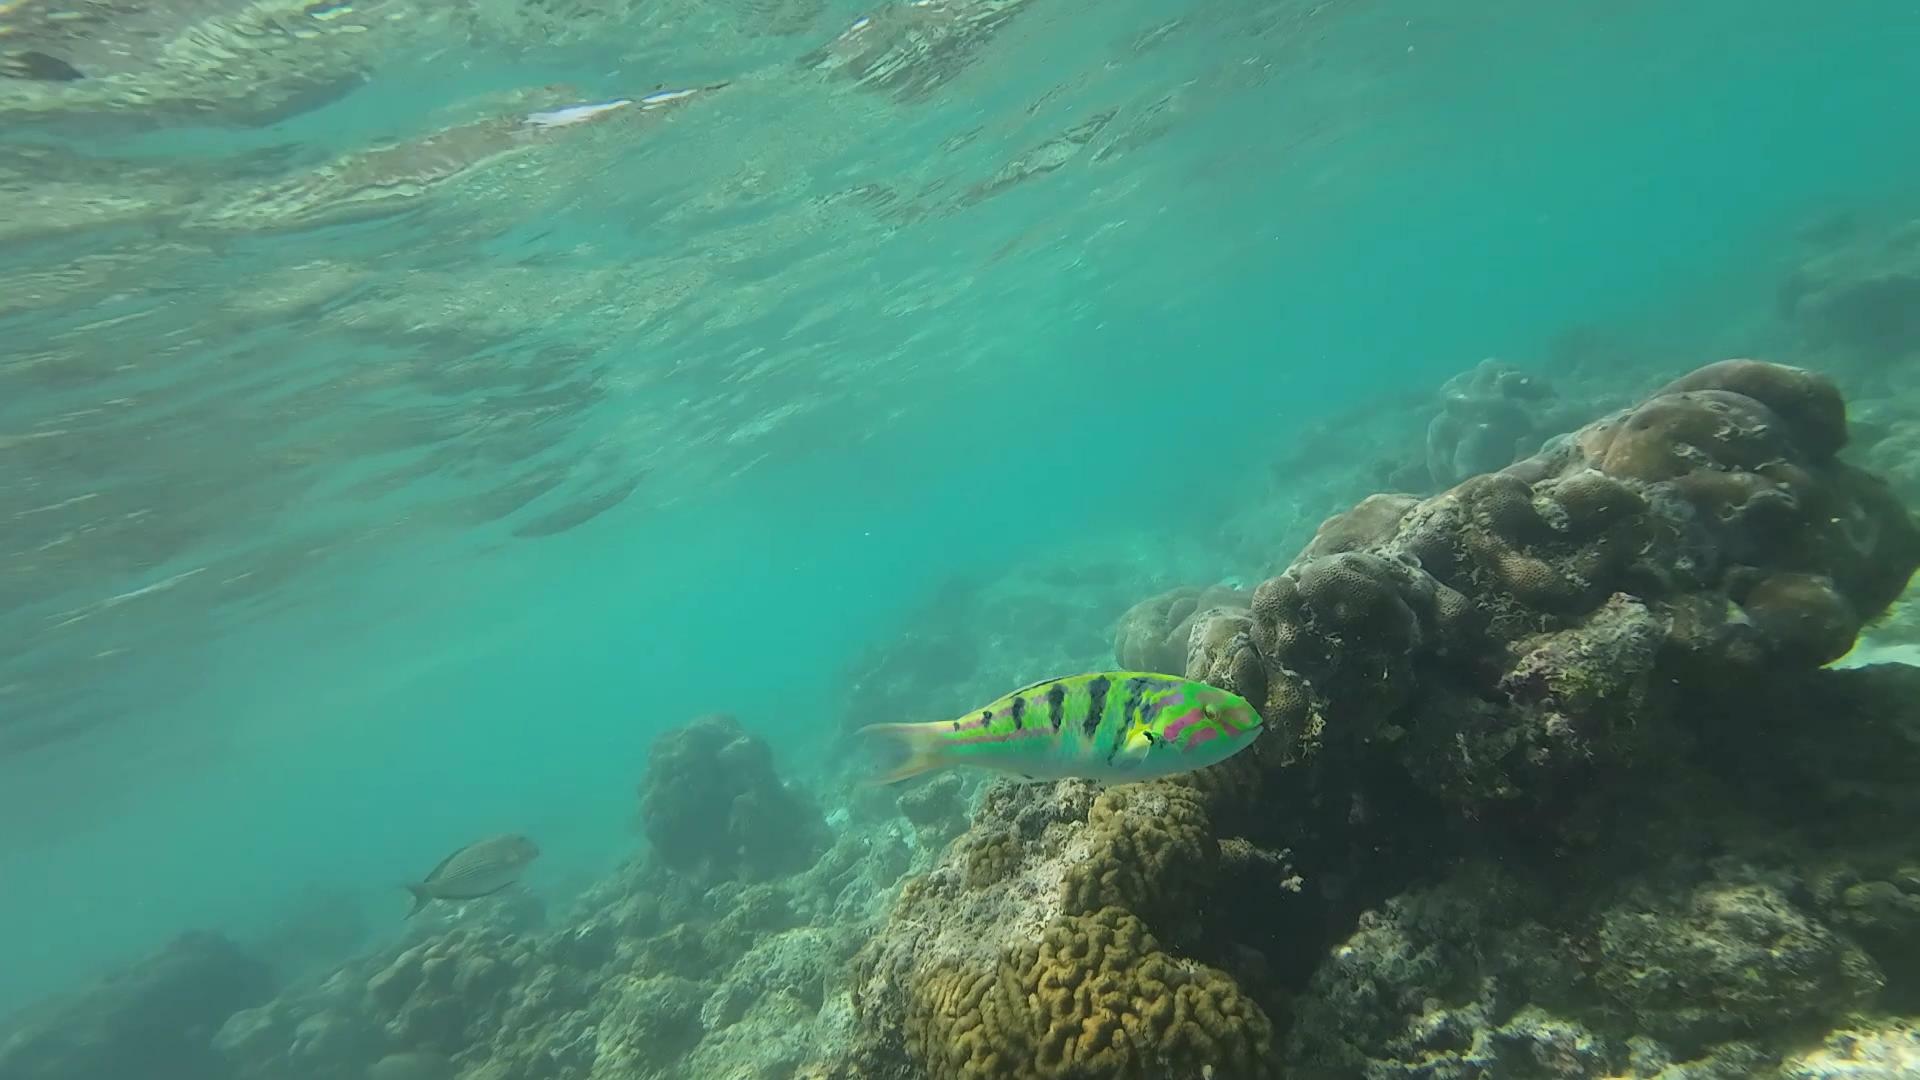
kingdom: Animalia
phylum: Chordata
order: Perciformes
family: Labridae
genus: Thalassoma
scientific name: Thalassoma hardwicke
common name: Sixbar wrasse
